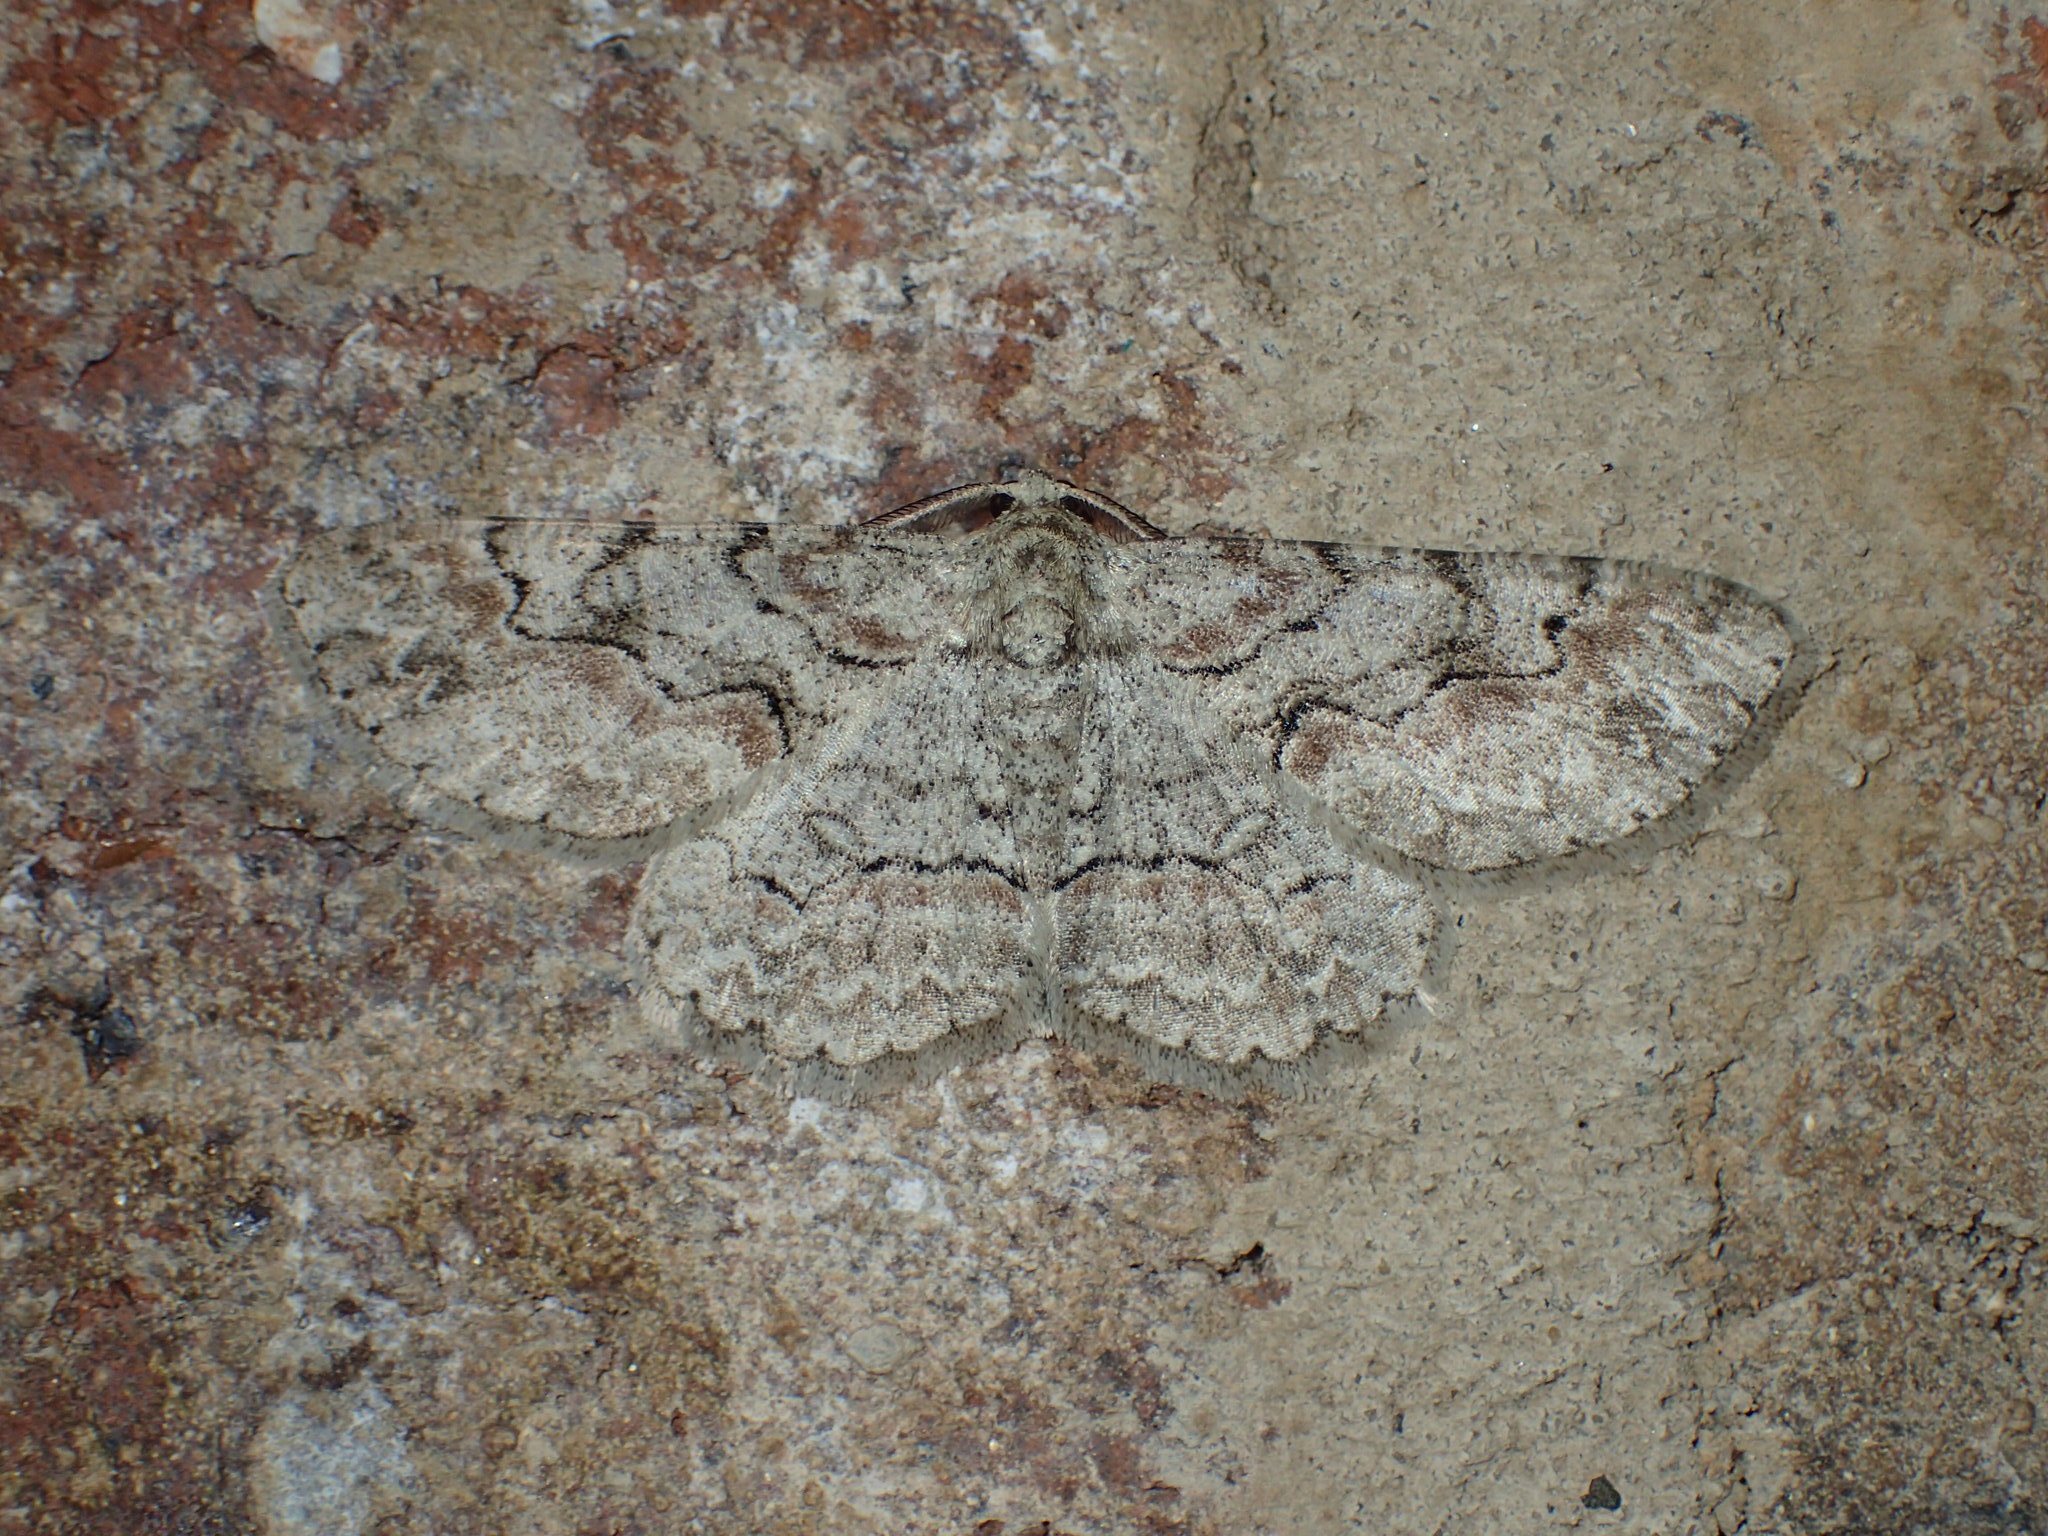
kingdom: Animalia
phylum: Arthropoda
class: Insecta
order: Lepidoptera
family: Geometridae
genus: Iridopsis
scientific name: Iridopsis defectaria
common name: Brown-shaded gray
